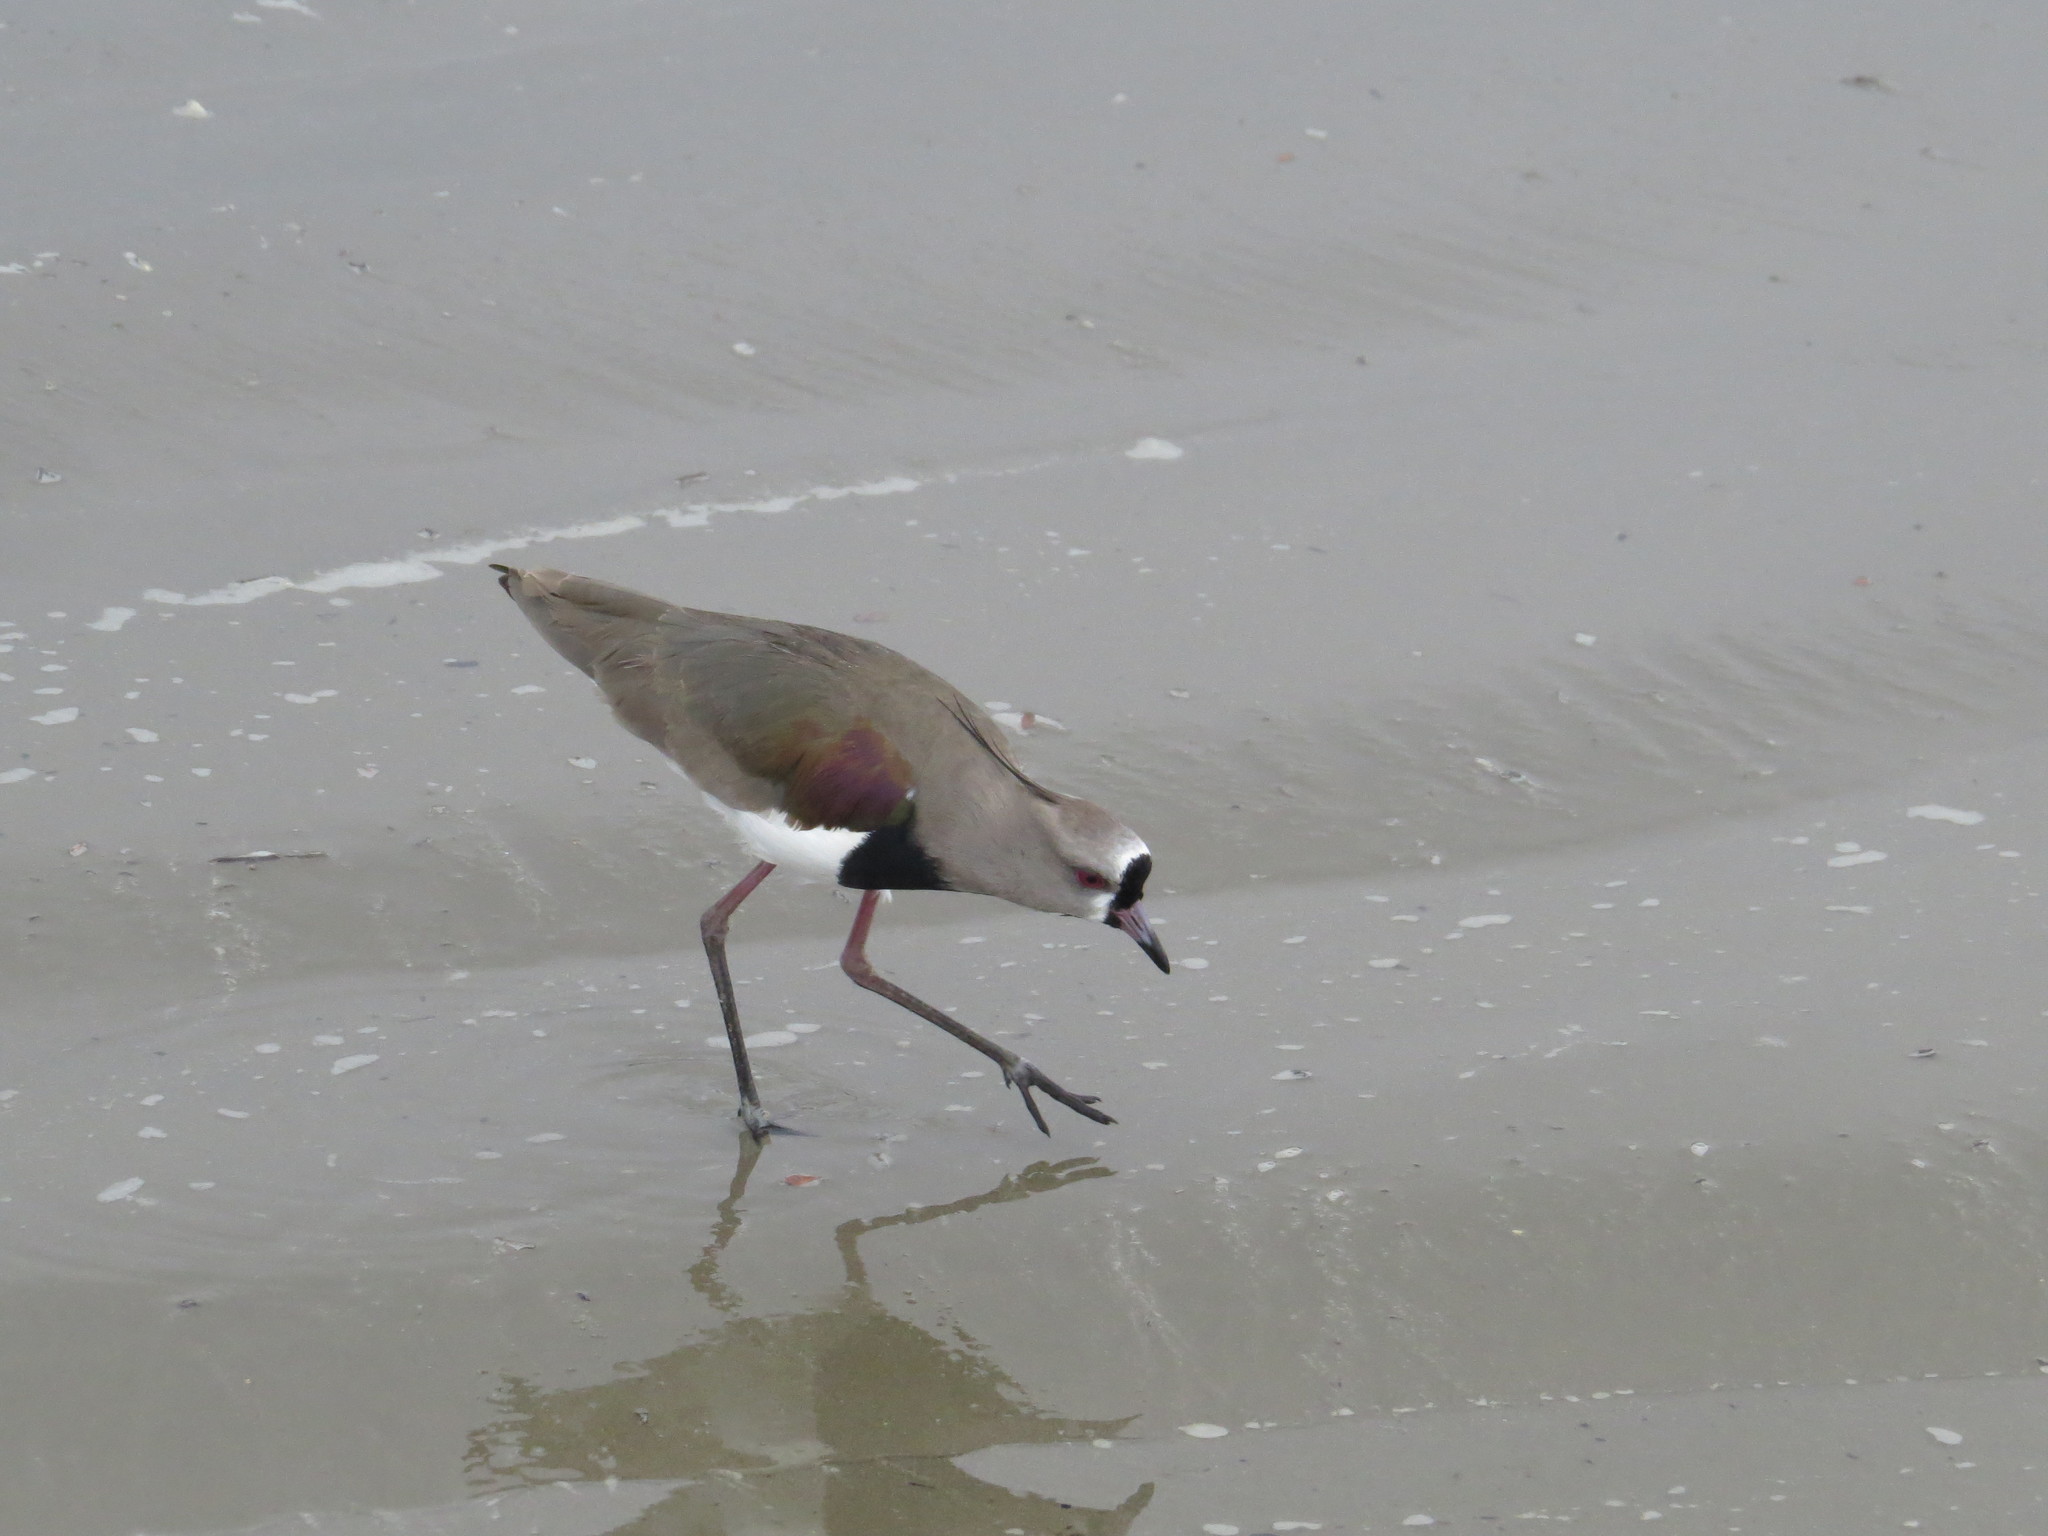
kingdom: Animalia
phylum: Chordata
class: Aves
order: Charadriiformes
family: Charadriidae
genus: Vanellus
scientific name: Vanellus chilensis
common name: Southern lapwing
